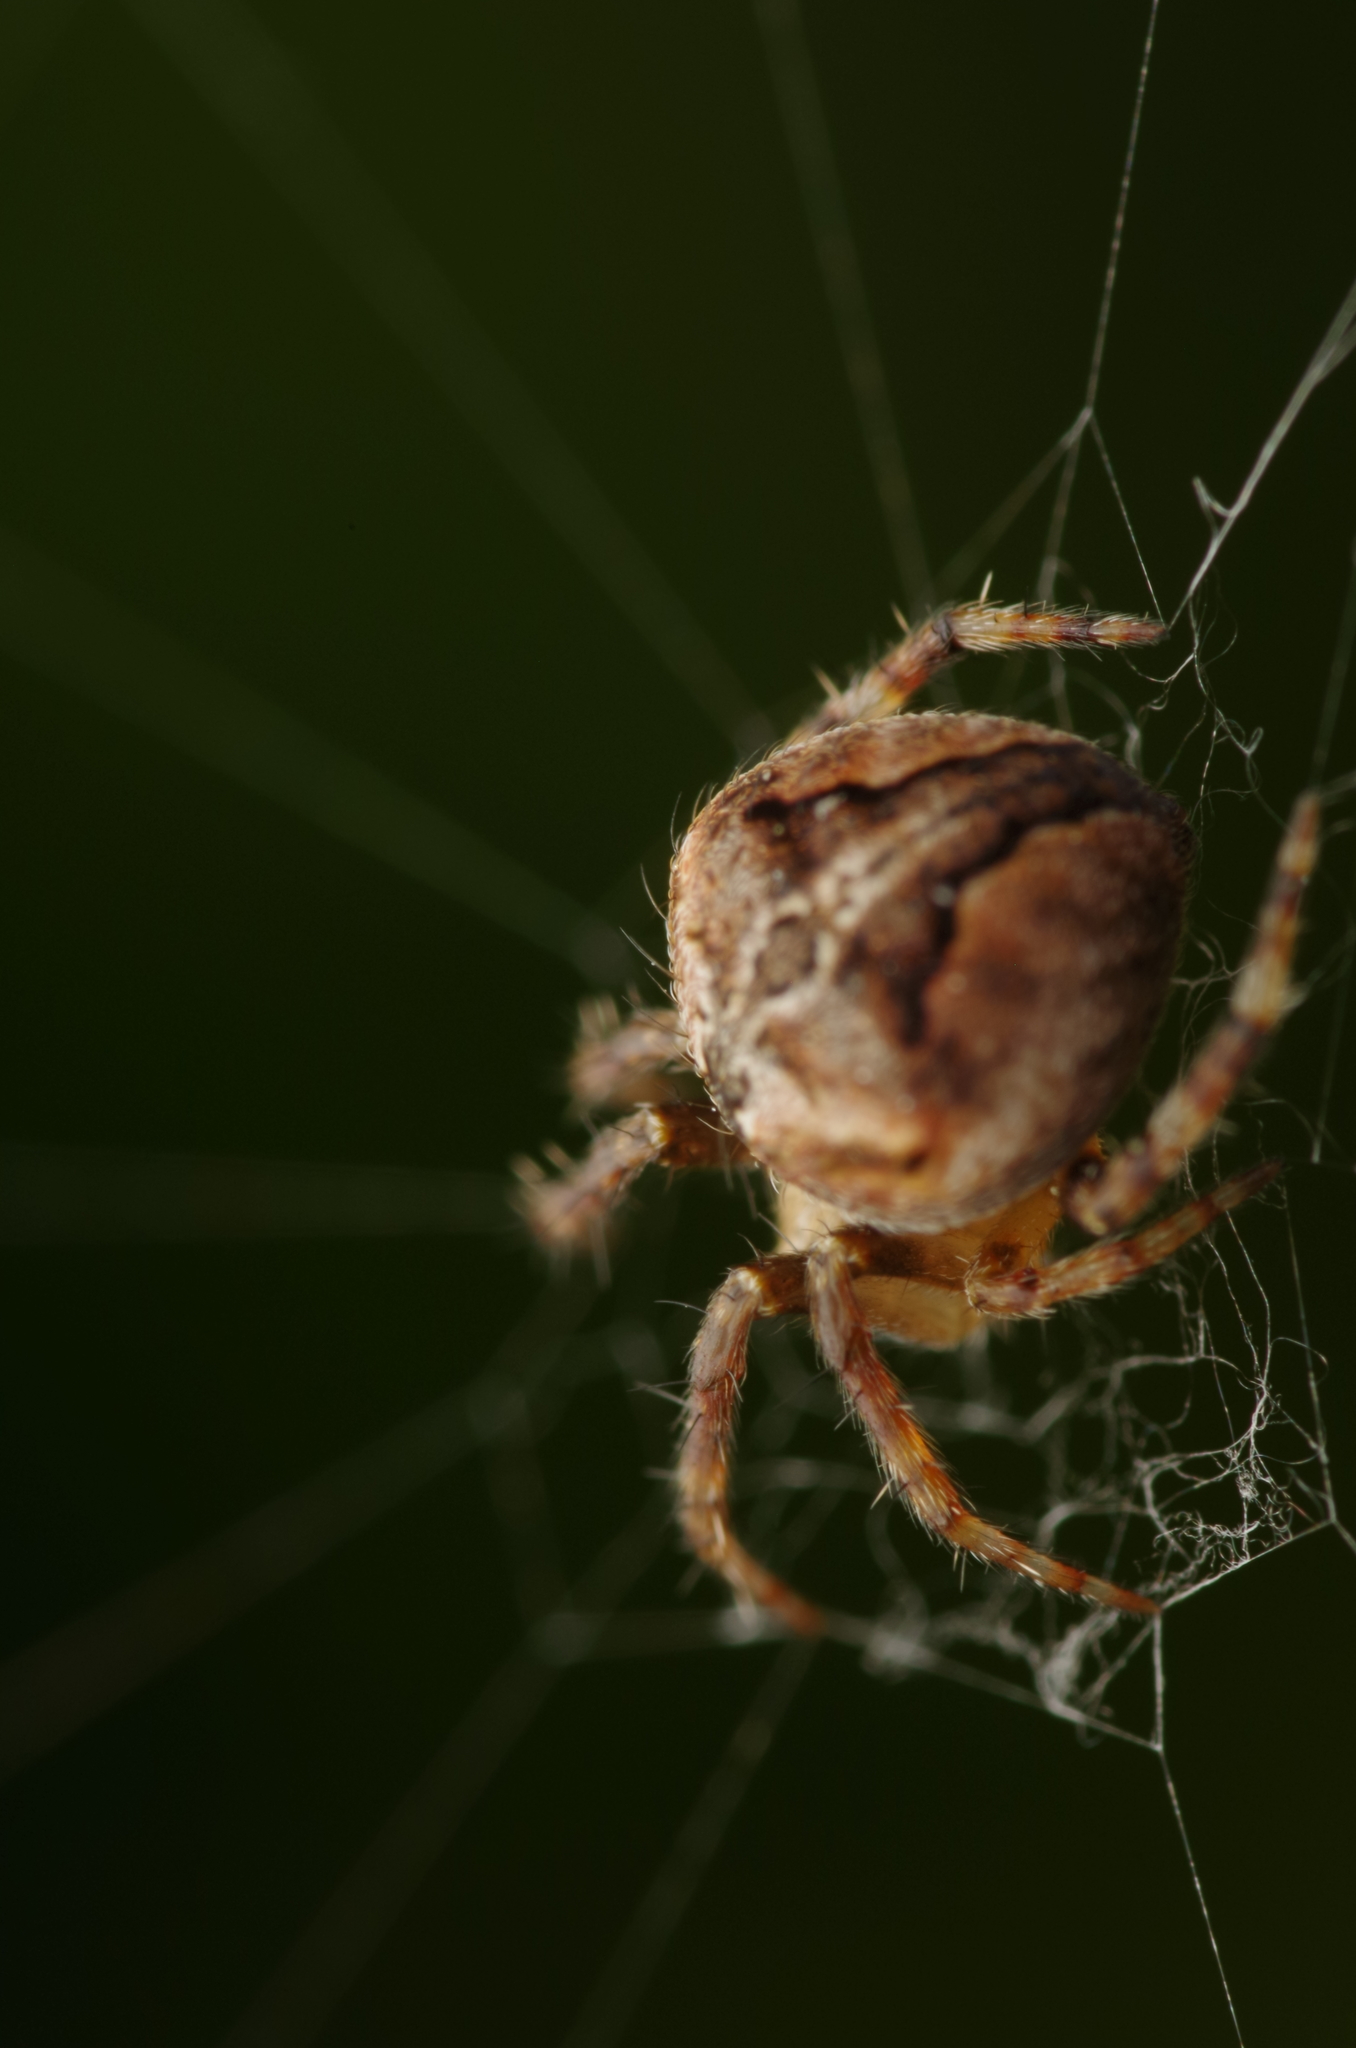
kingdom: Animalia
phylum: Arthropoda
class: Arachnida
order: Araneae
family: Araneidae
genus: Neoscona
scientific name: Neoscona subfusca
